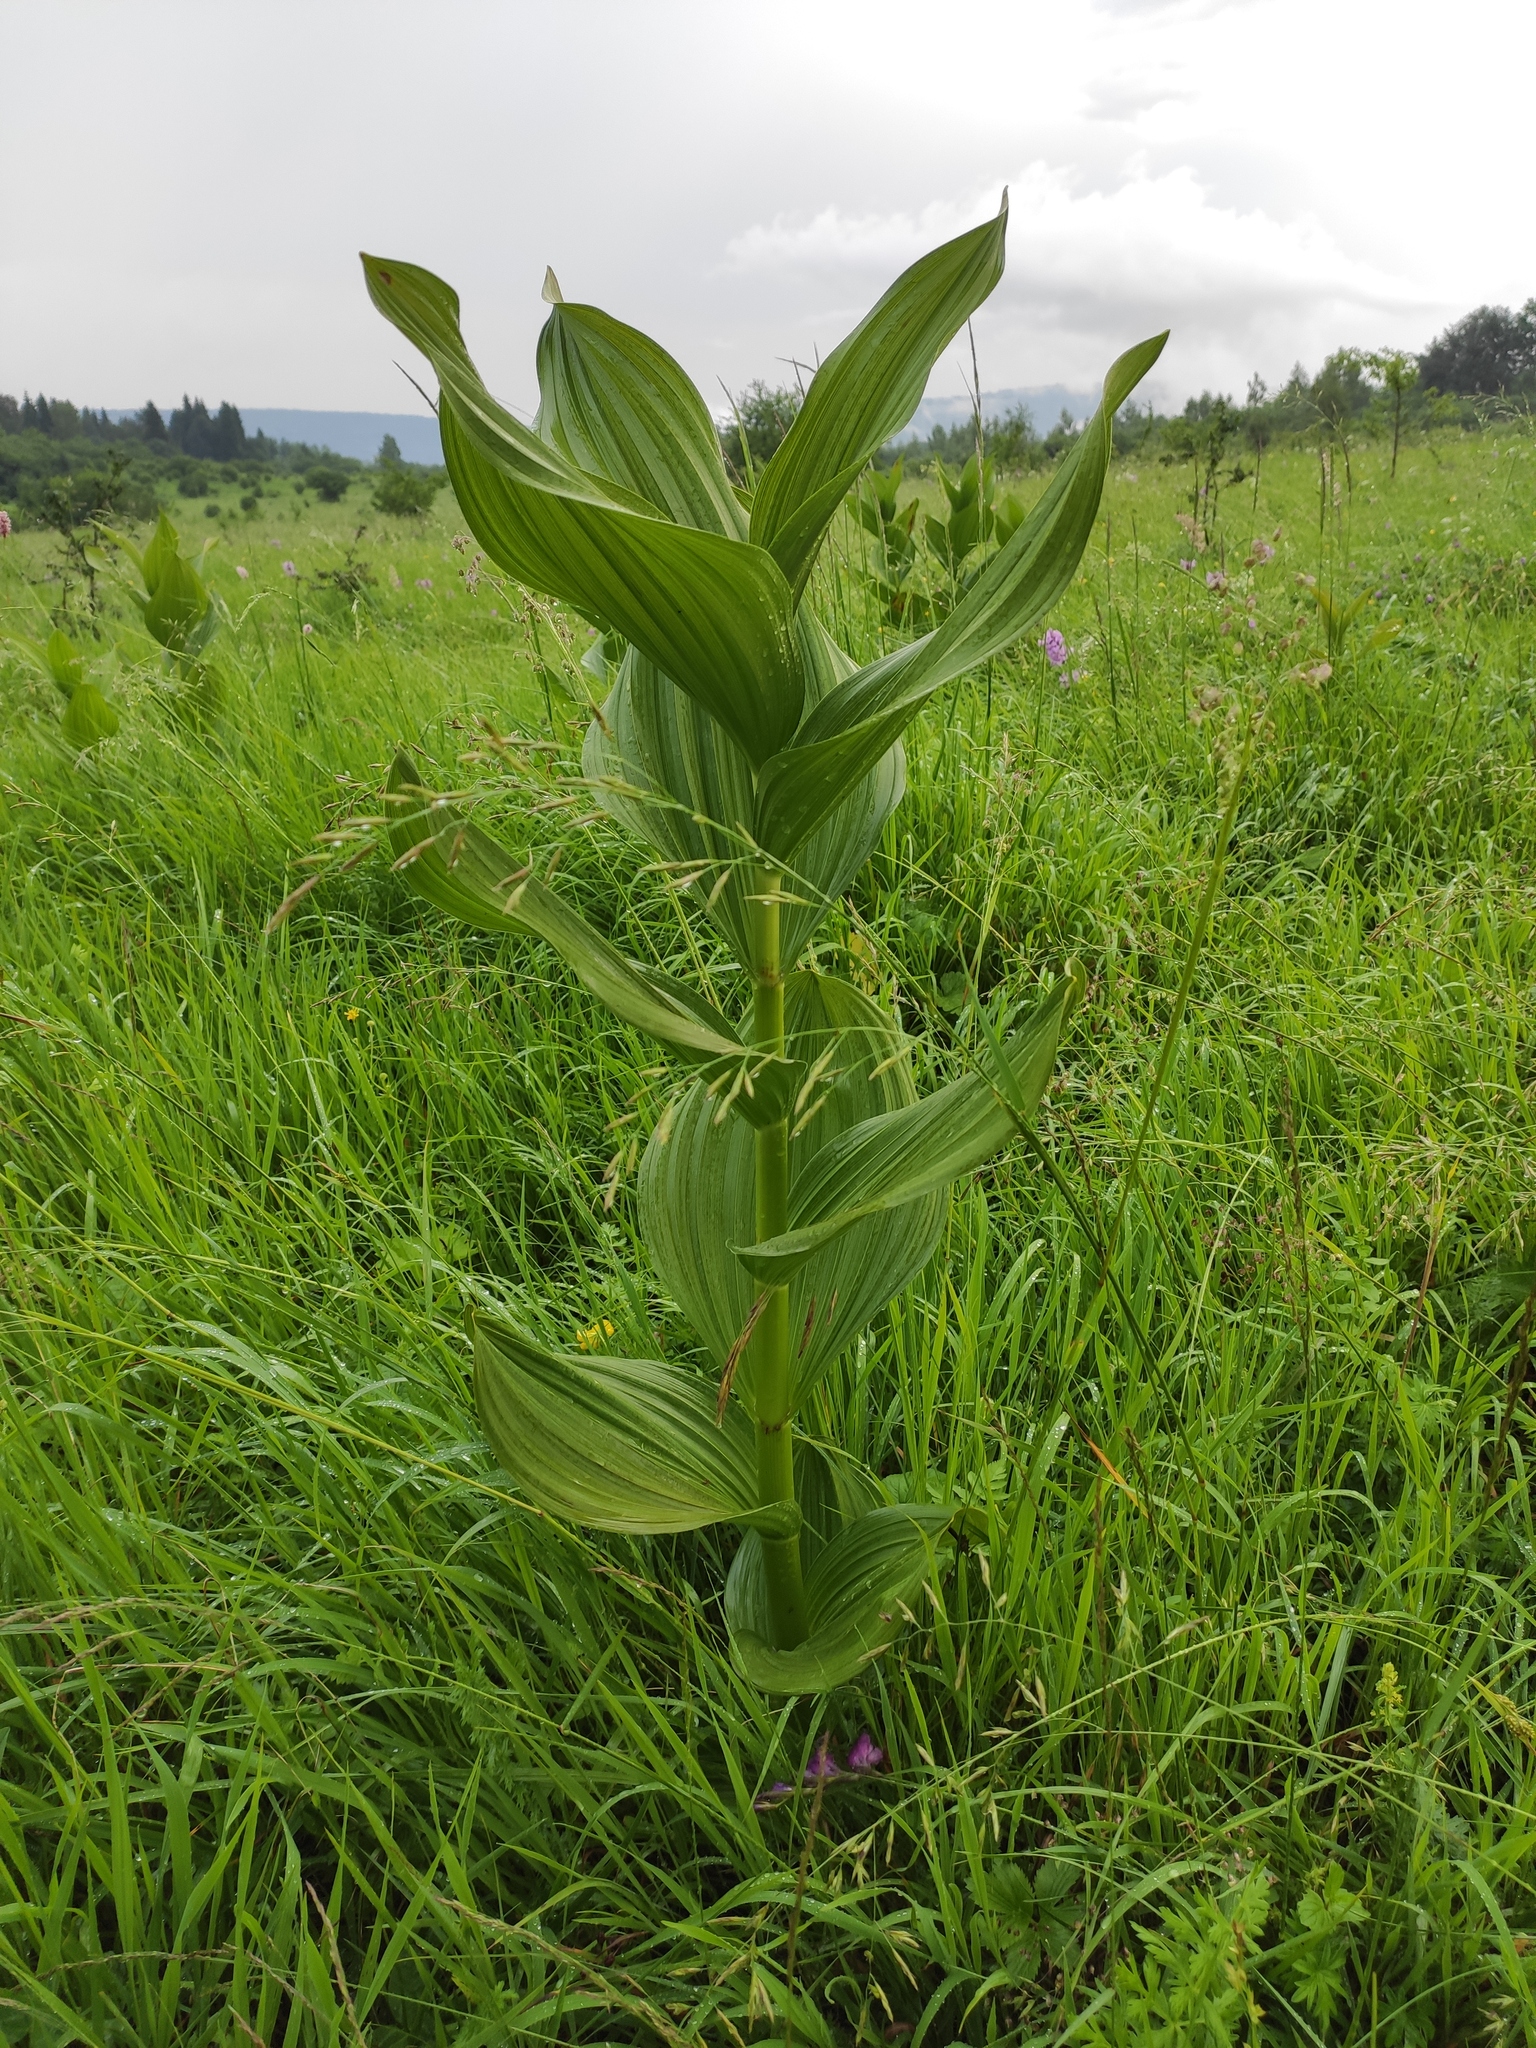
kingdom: Plantae
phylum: Tracheophyta
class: Liliopsida
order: Liliales
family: Melanthiaceae
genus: Veratrum
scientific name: Veratrum lobelianum
